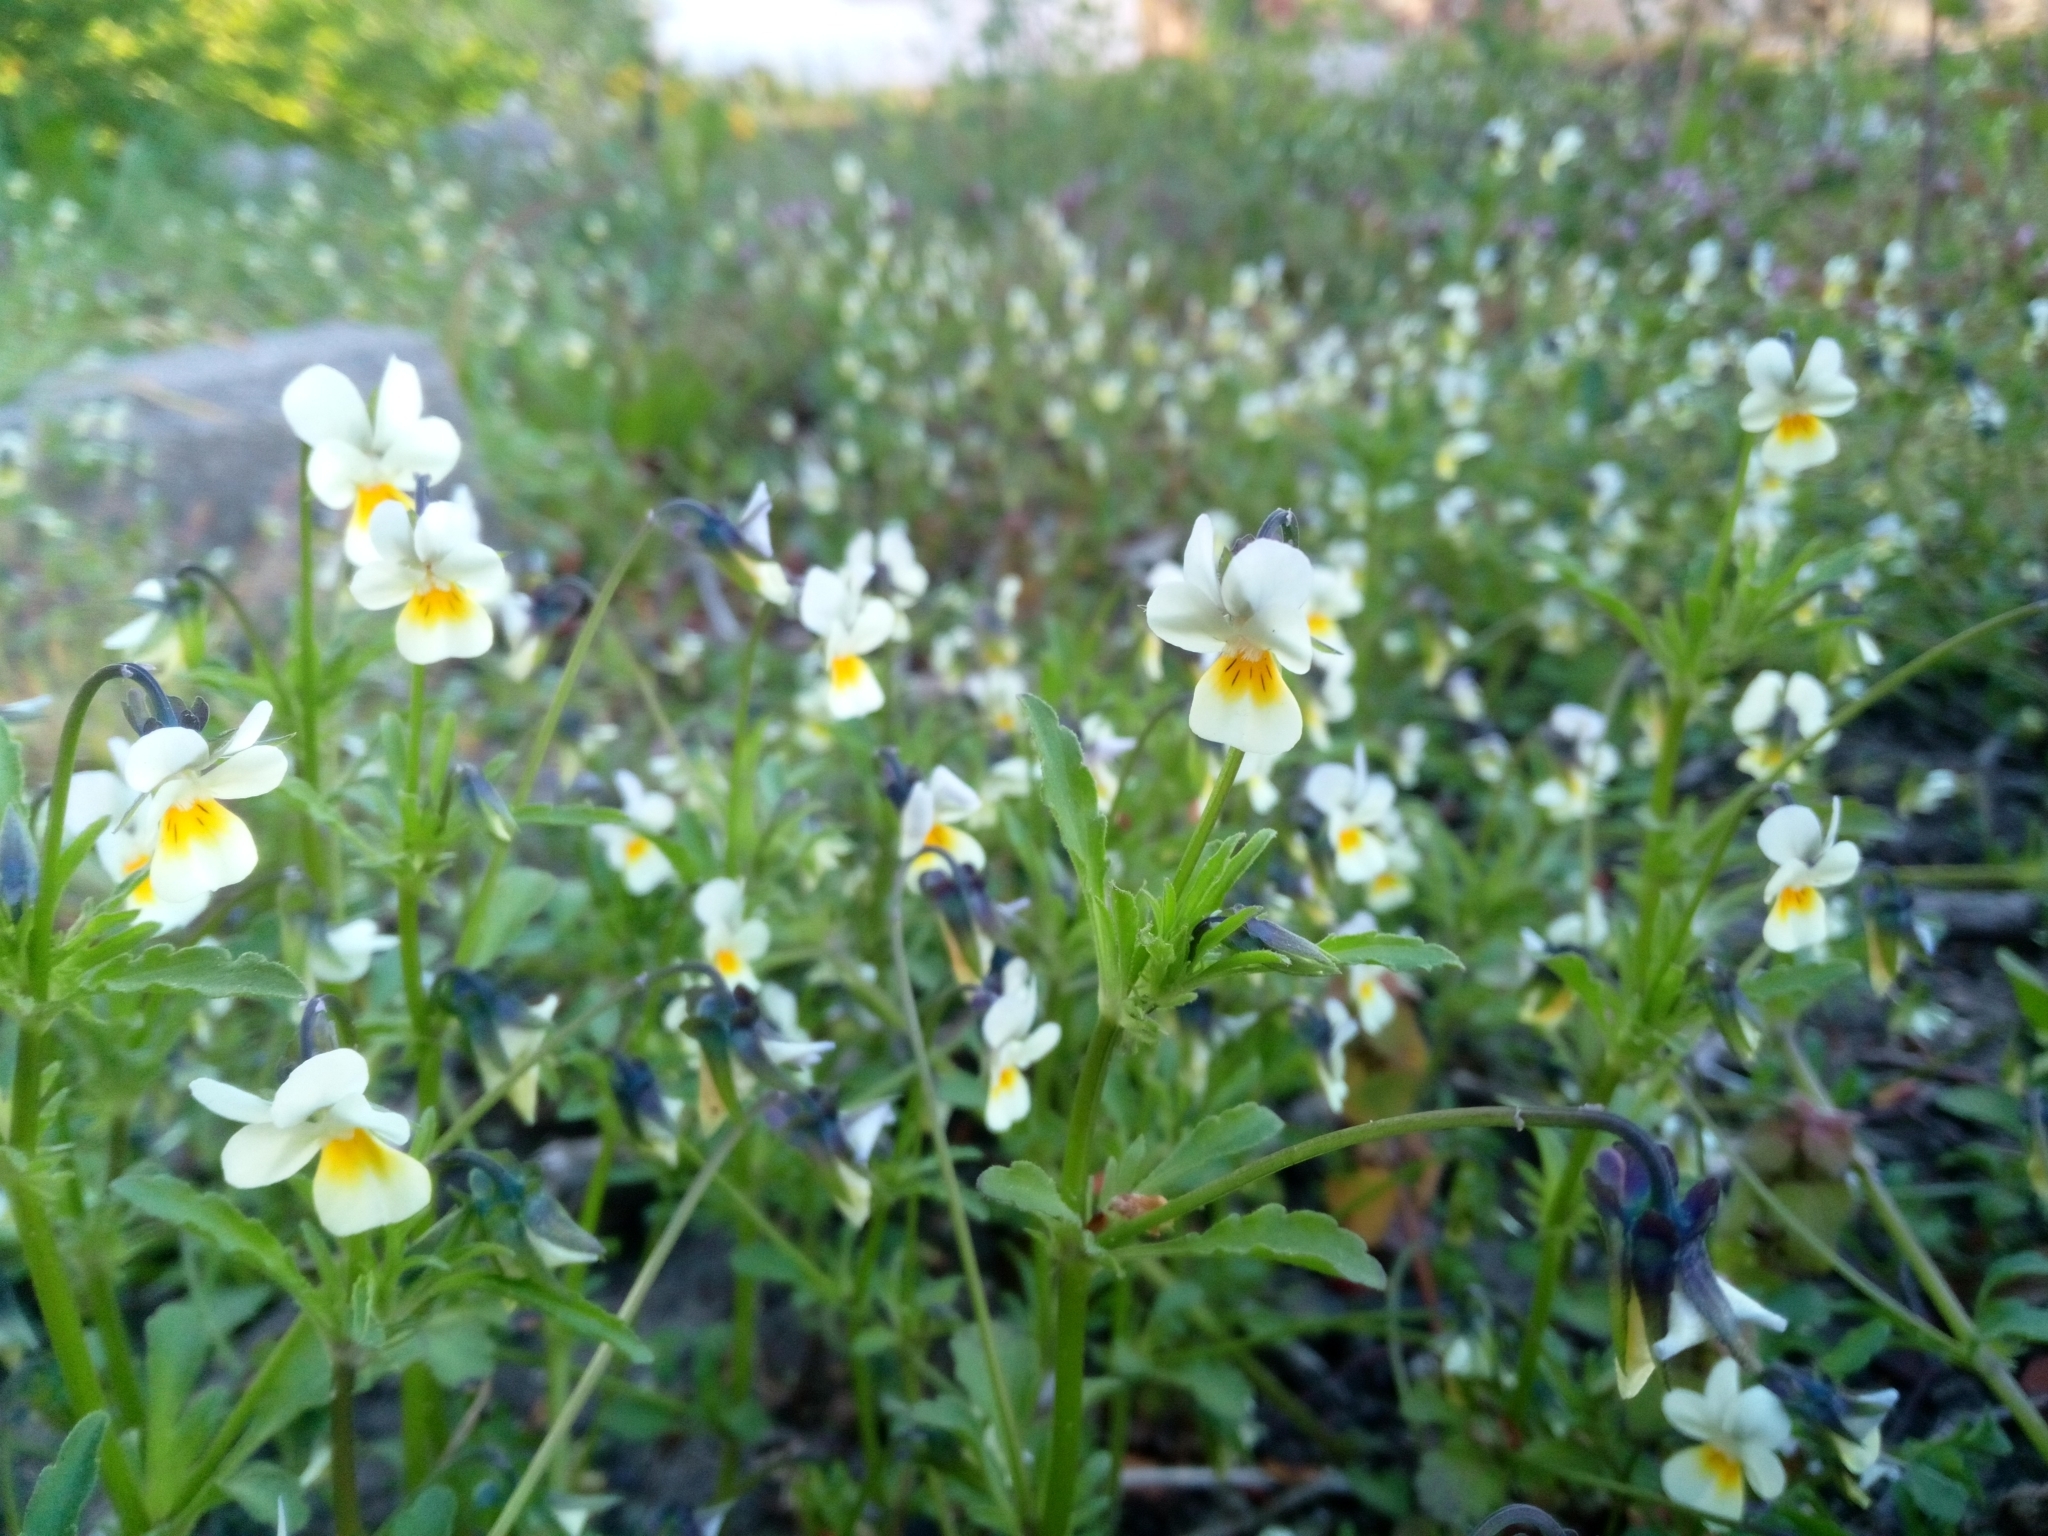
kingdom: Plantae
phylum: Tracheophyta
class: Magnoliopsida
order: Malpighiales
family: Violaceae
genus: Viola
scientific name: Viola arvensis
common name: Field pansy
